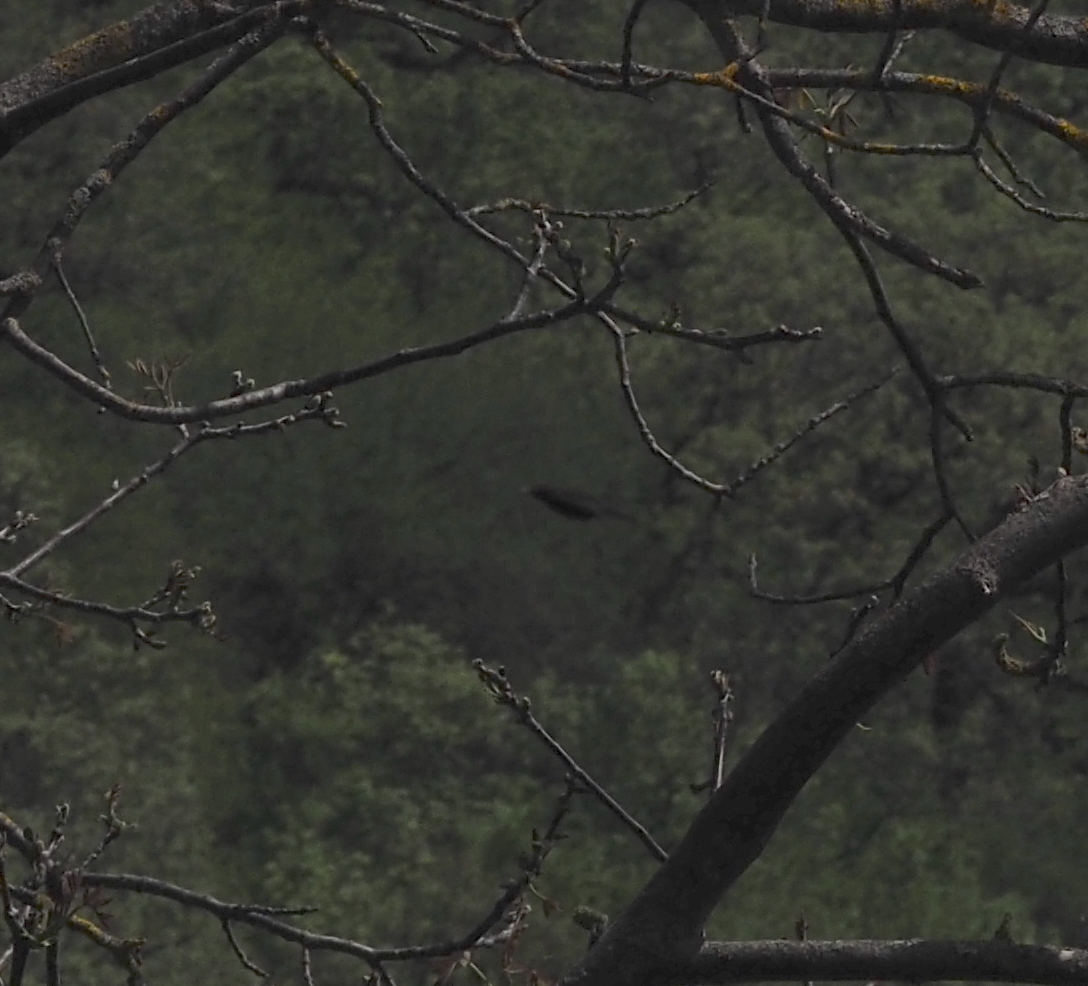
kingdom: Animalia
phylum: Chordata
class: Aves
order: Piciformes
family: Picidae
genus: Dryocopus
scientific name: Dryocopus martius
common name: Black woodpecker
